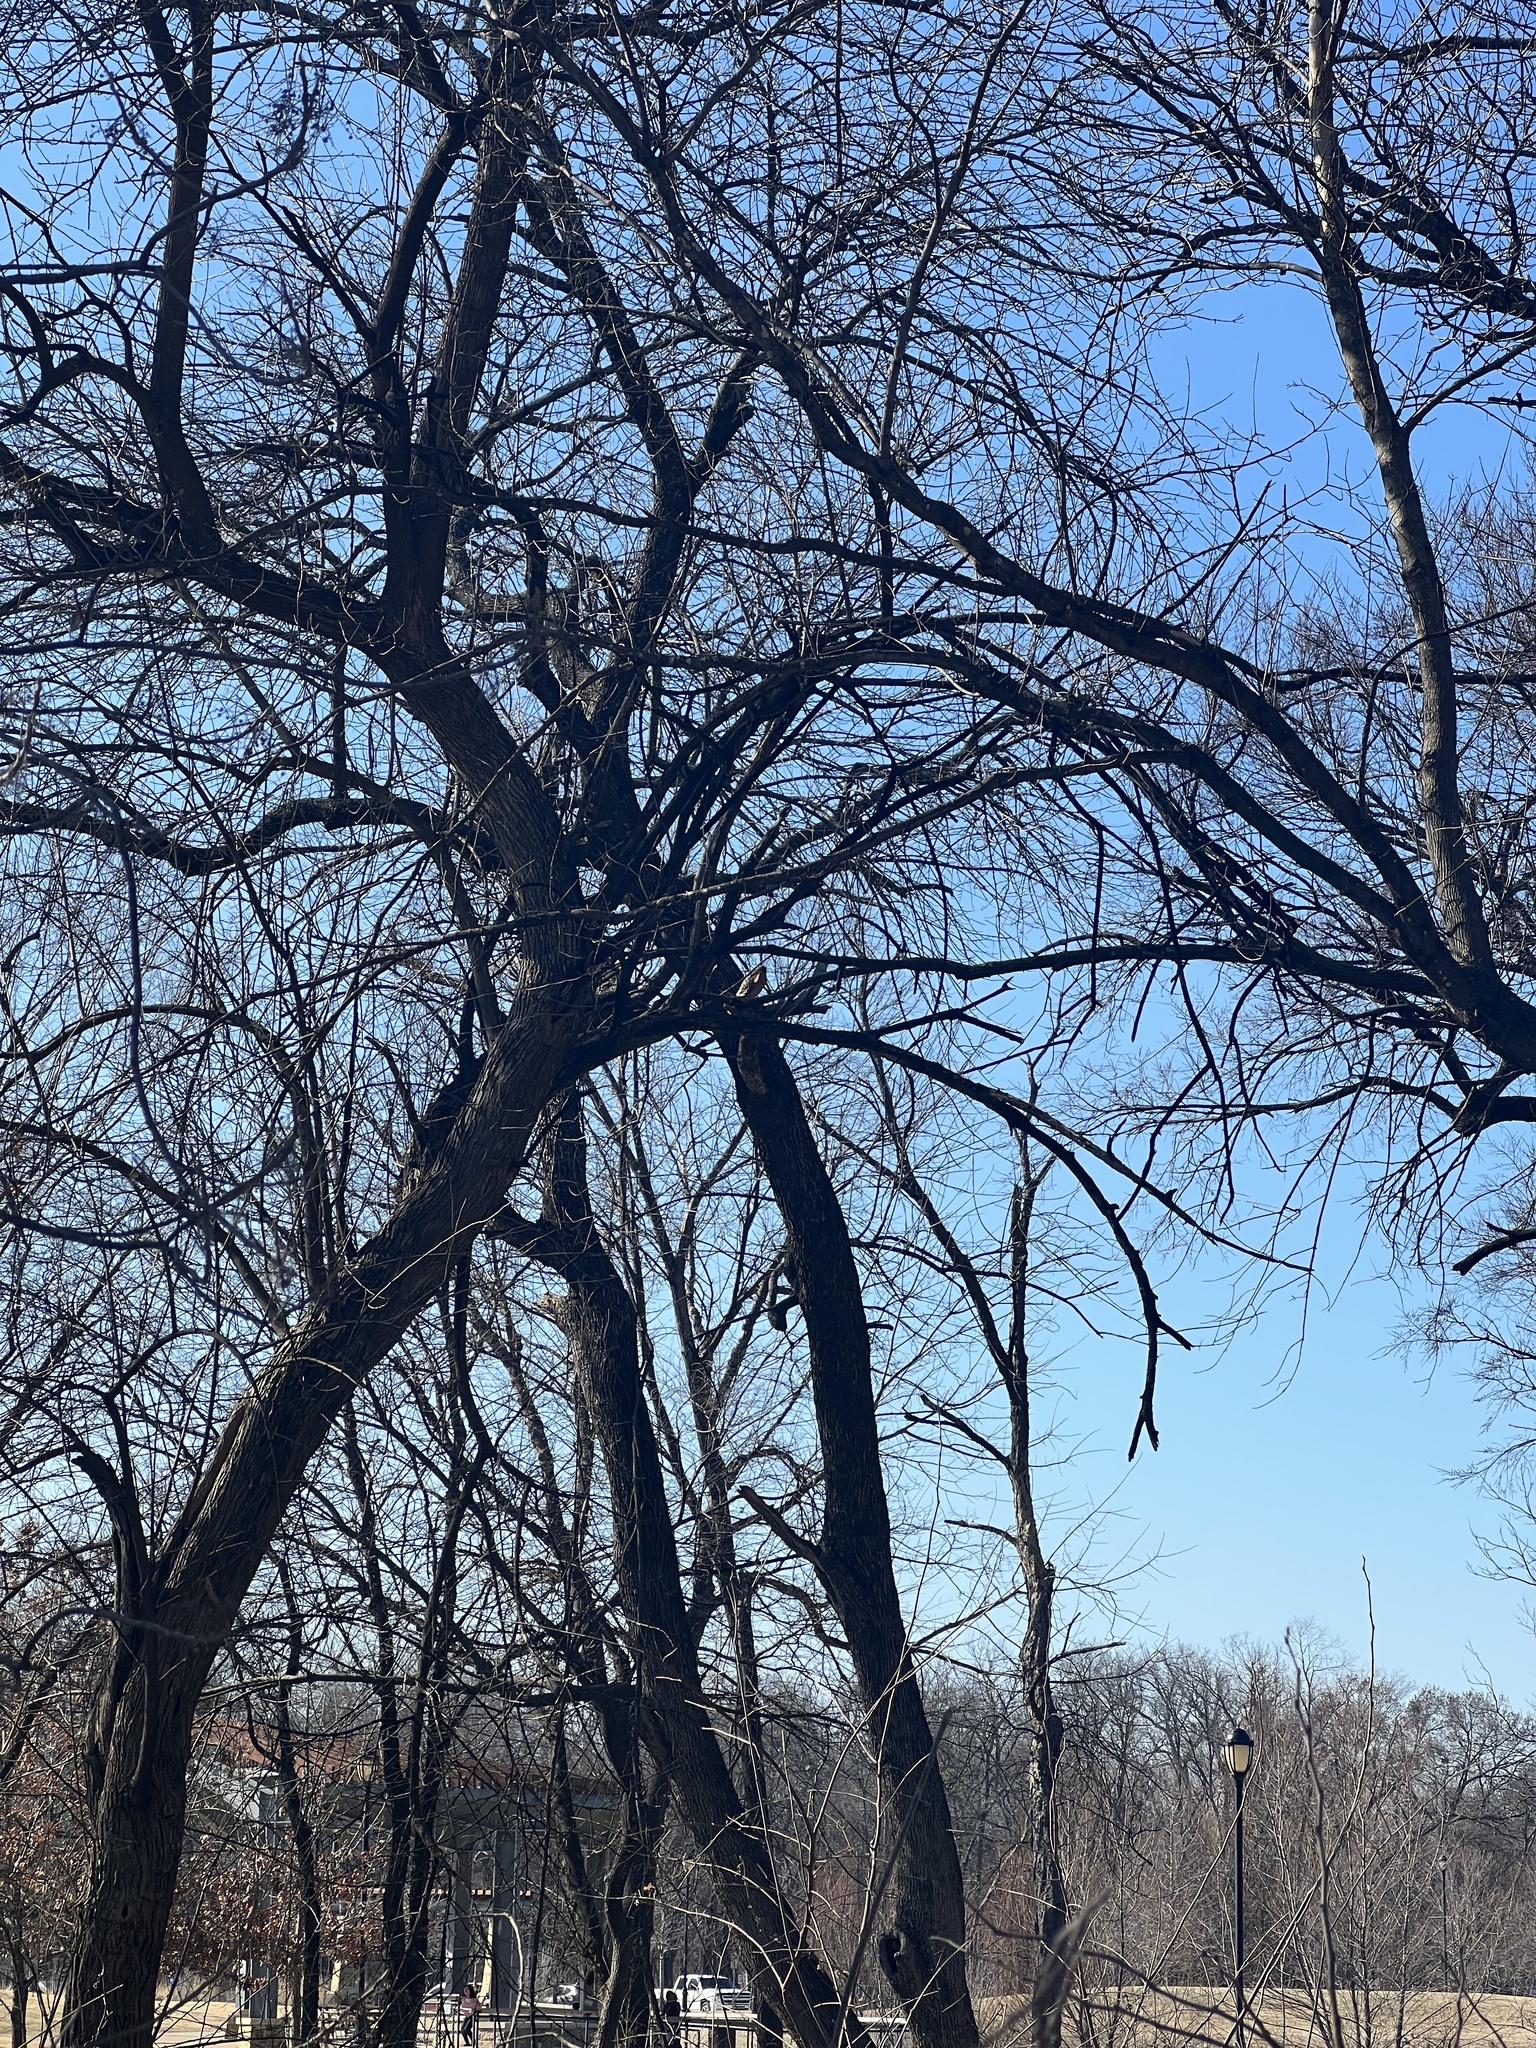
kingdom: Animalia
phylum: Chordata
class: Aves
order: Accipitriformes
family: Accipitridae
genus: Buteo
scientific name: Buteo lineatus
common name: Red-shouldered hawk
